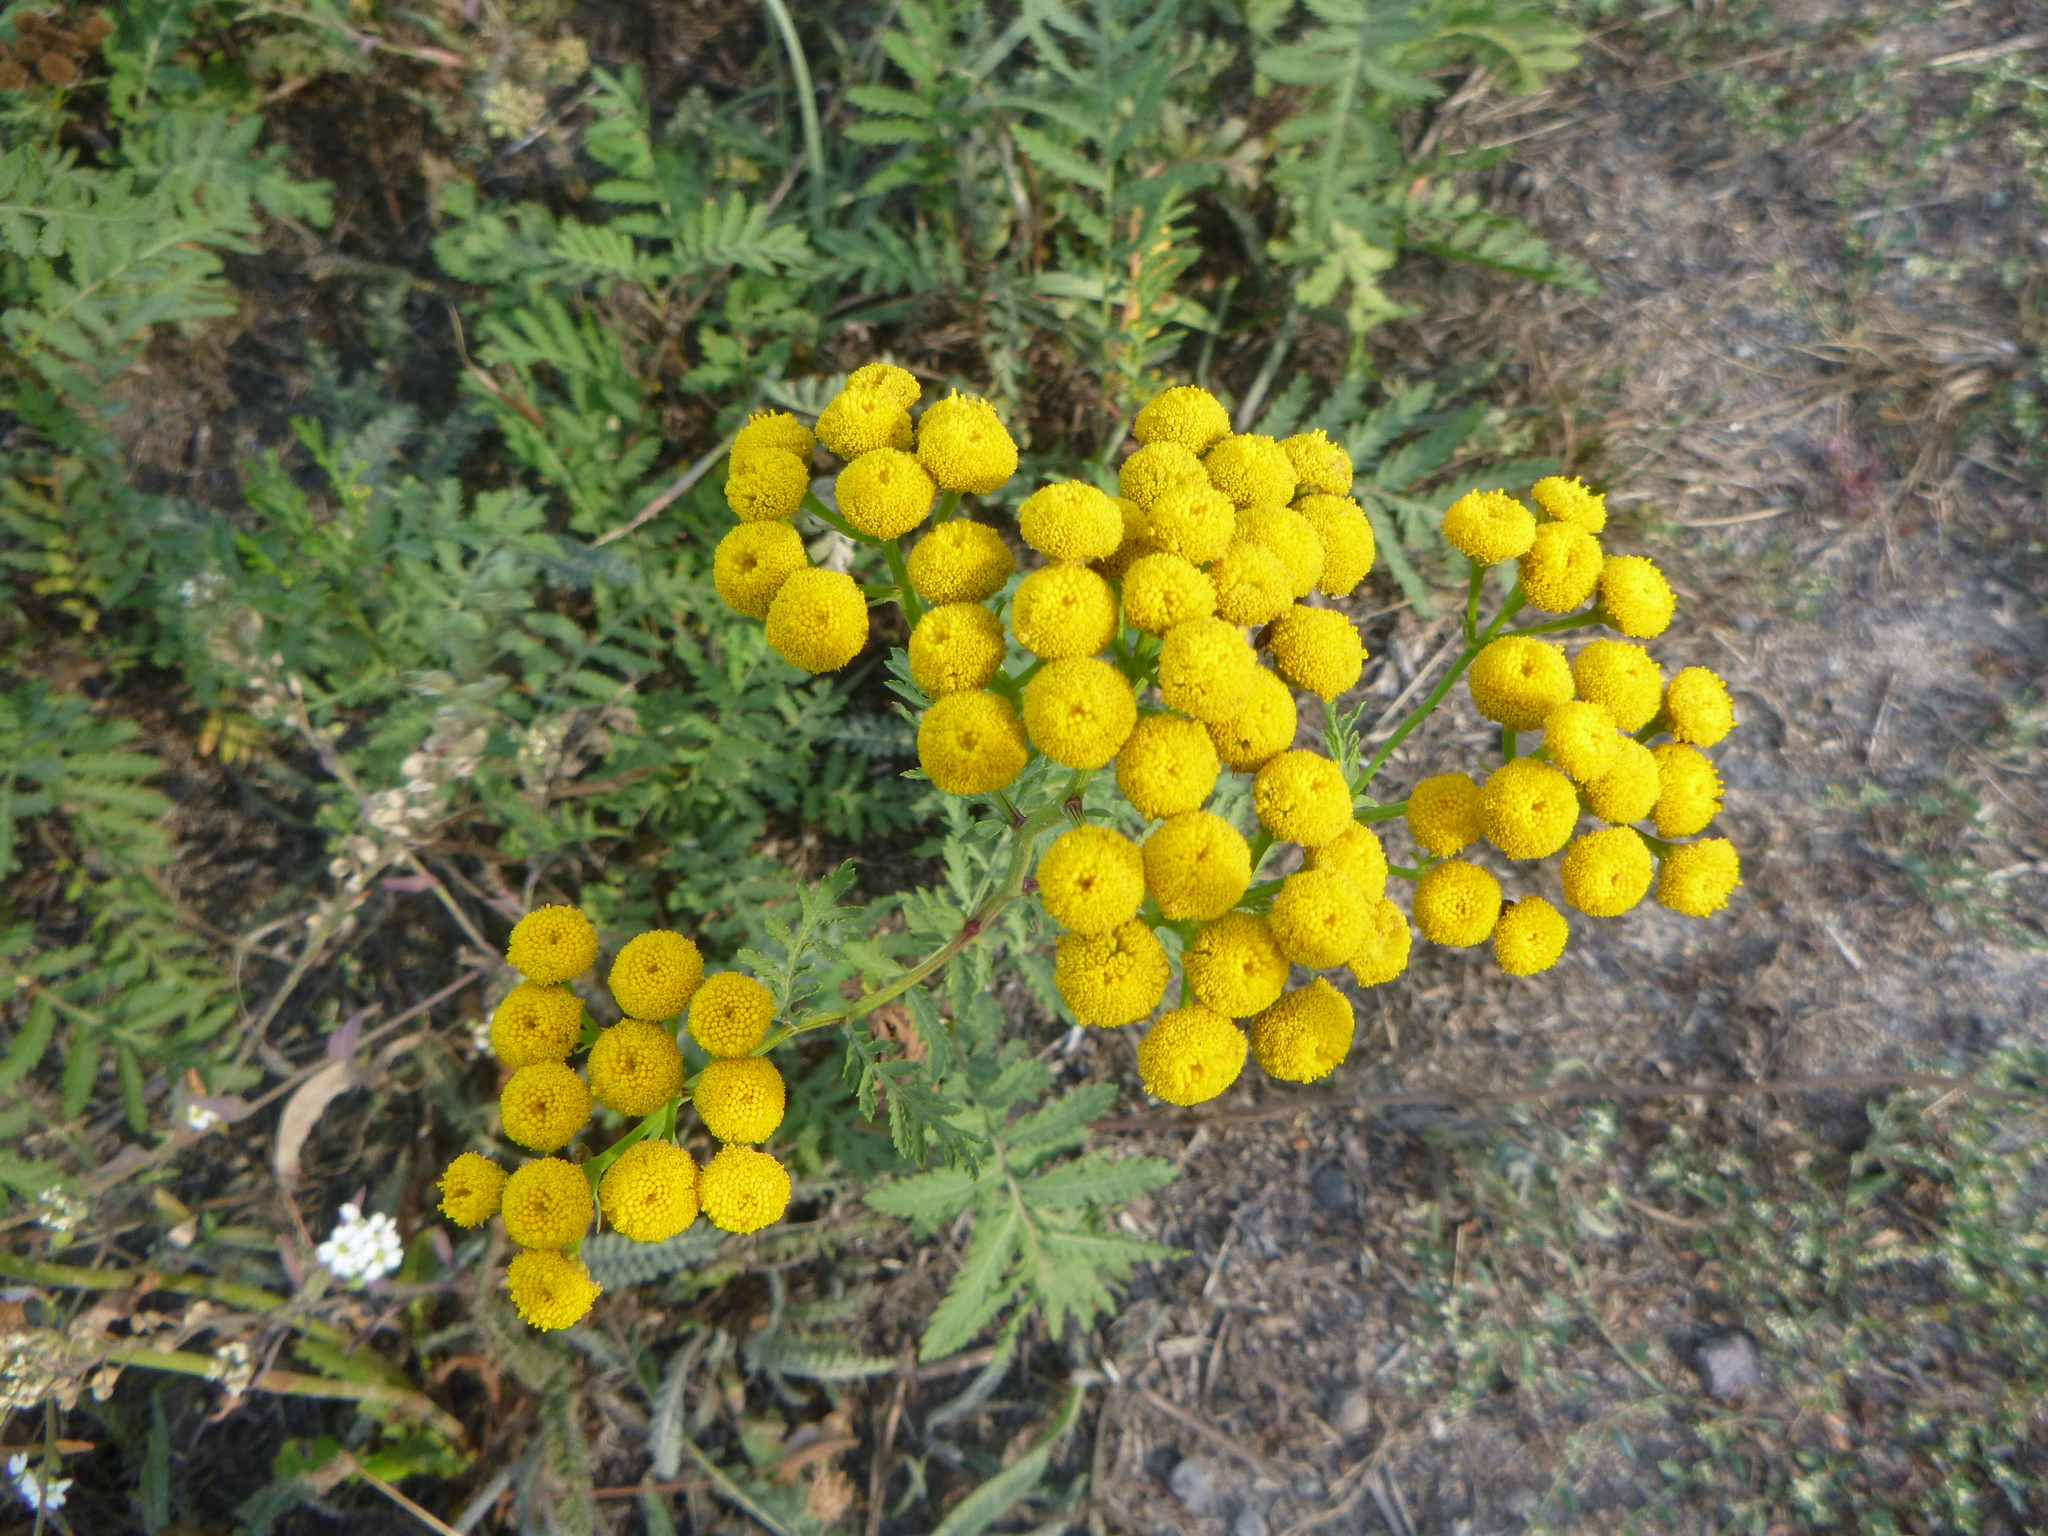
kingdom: Plantae
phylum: Tracheophyta
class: Magnoliopsida
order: Asterales
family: Asteraceae
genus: Tanacetum
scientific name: Tanacetum vulgare
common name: Common tansy
